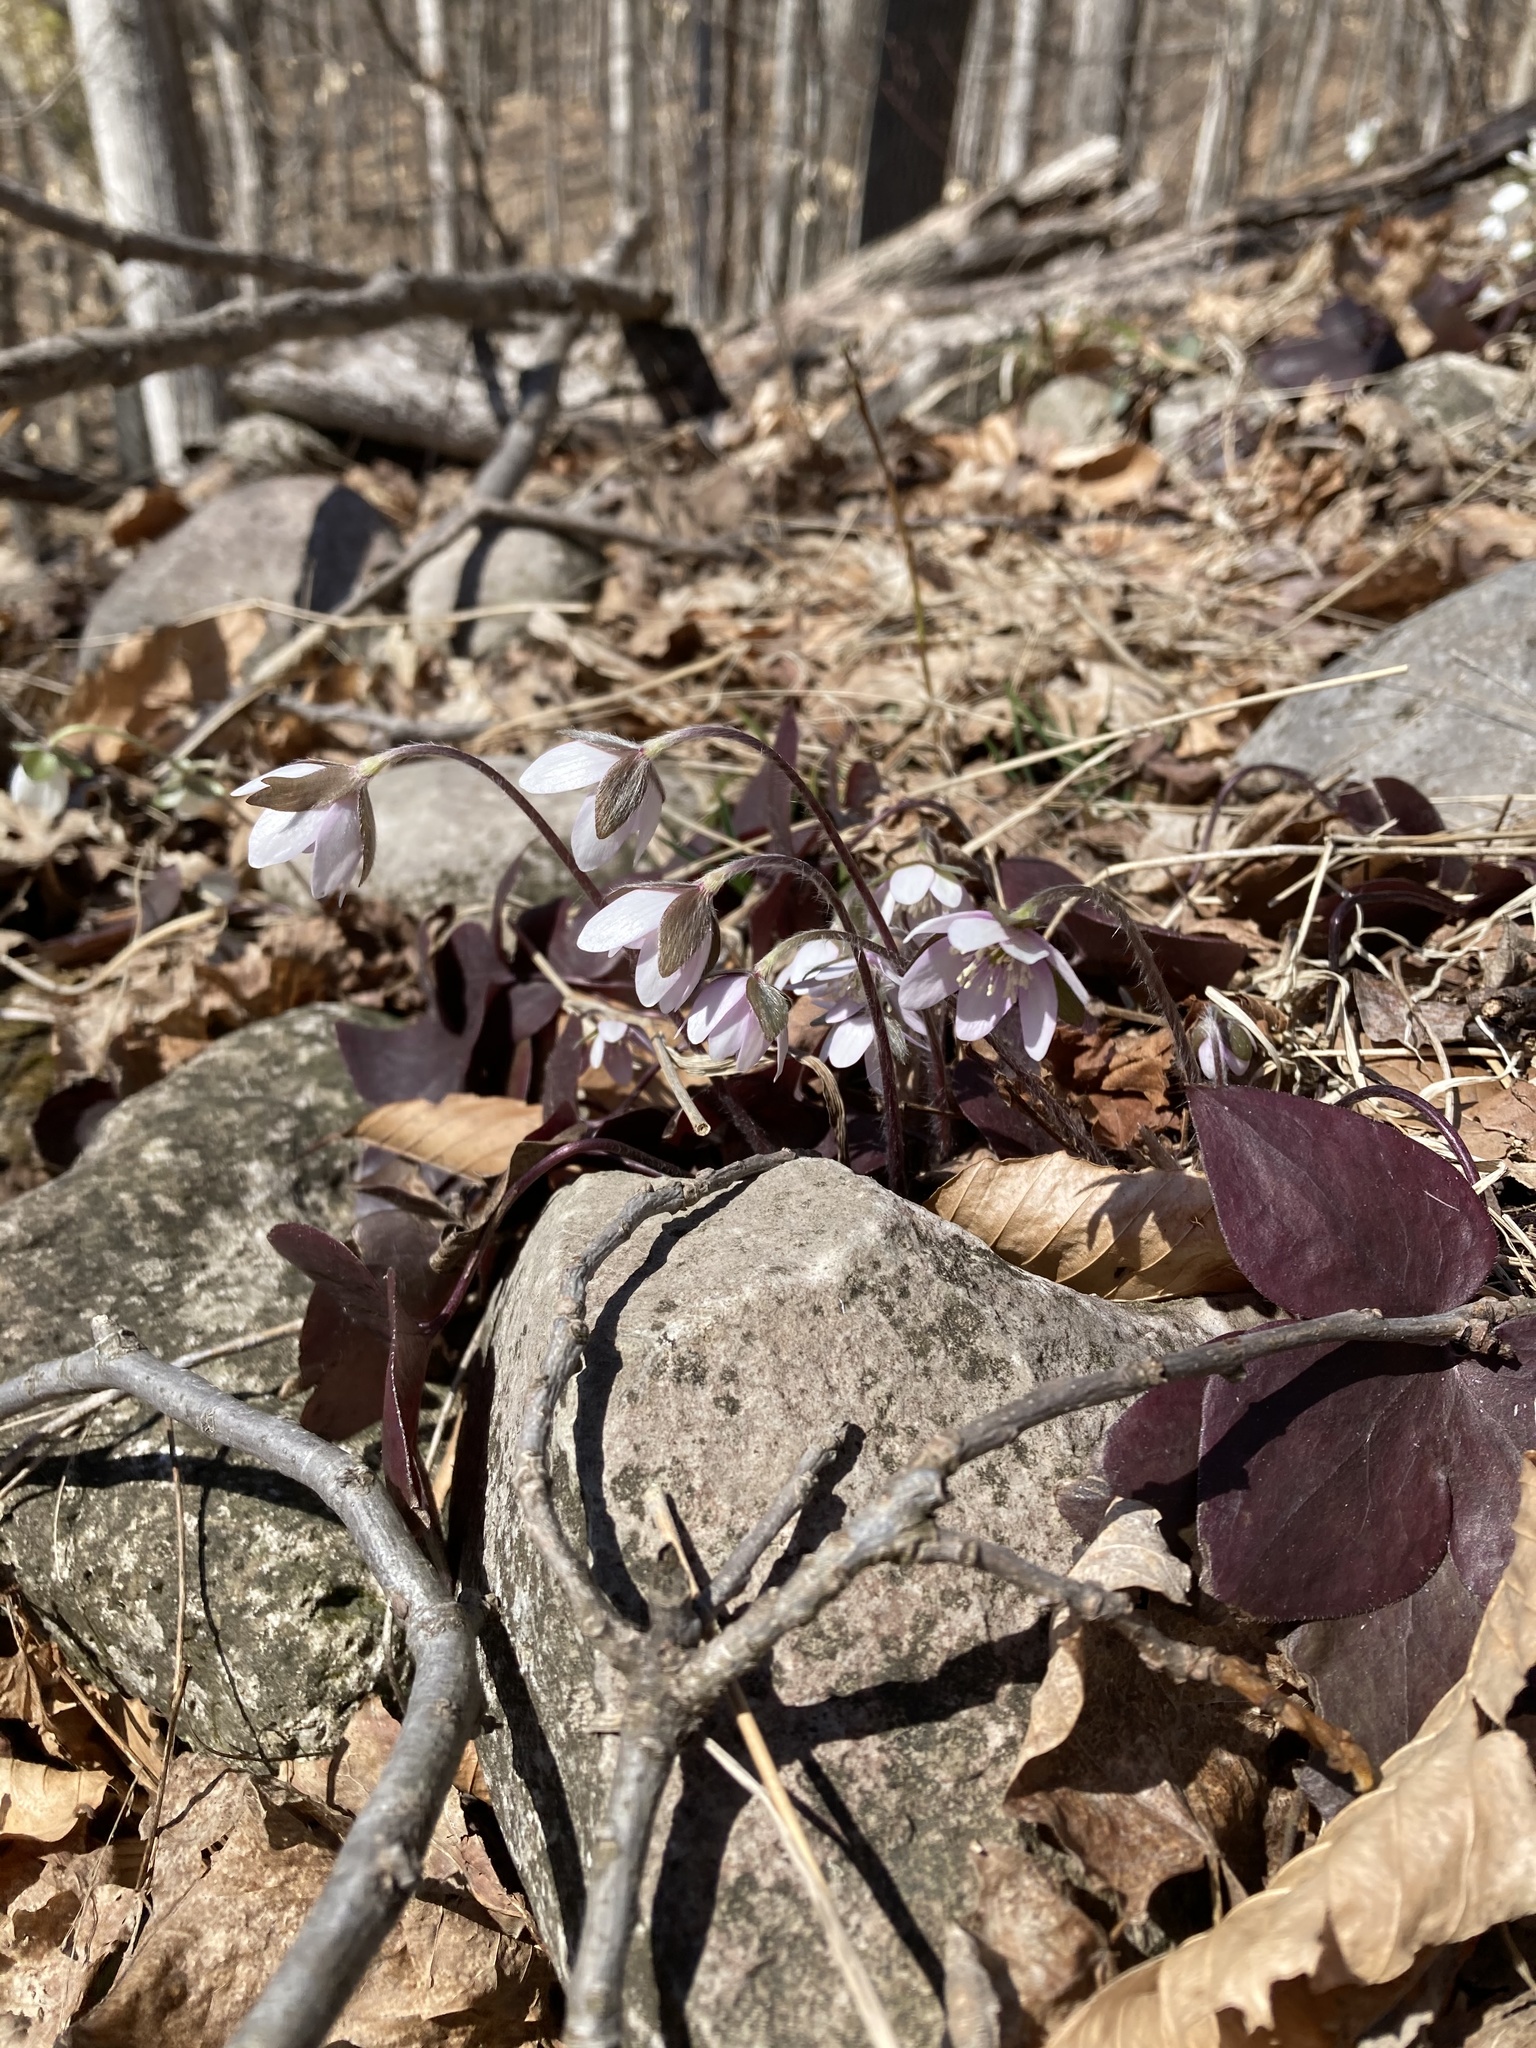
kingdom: Plantae
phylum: Tracheophyta
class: Magnoliopsida
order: Ranunculales
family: Ranunculaceae
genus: Hepatica
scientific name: Hepatica acutiloba
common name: Sharp-lobed hepatica
